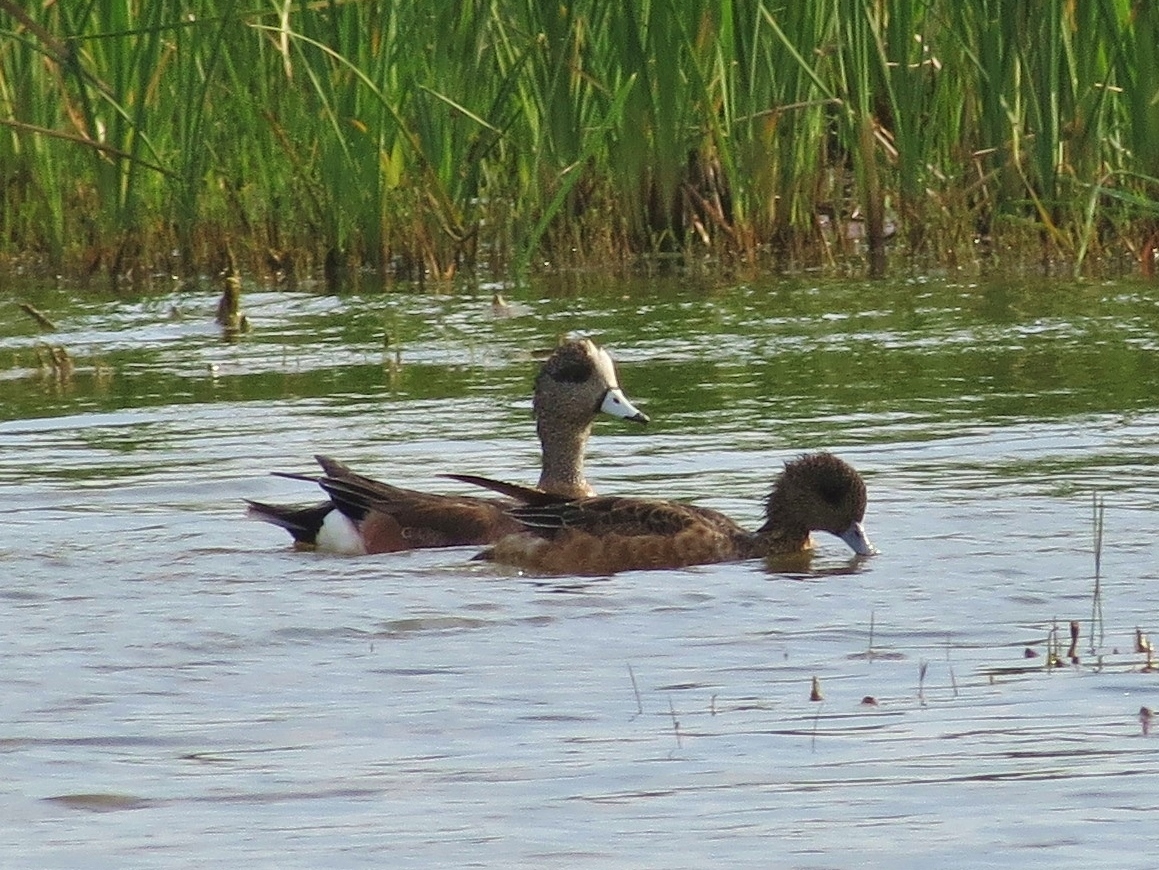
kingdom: Animalia
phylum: Chordata
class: Aves
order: Anseriformes
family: Anatidae
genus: Mareca
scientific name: Mareca americana
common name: American wigeon
